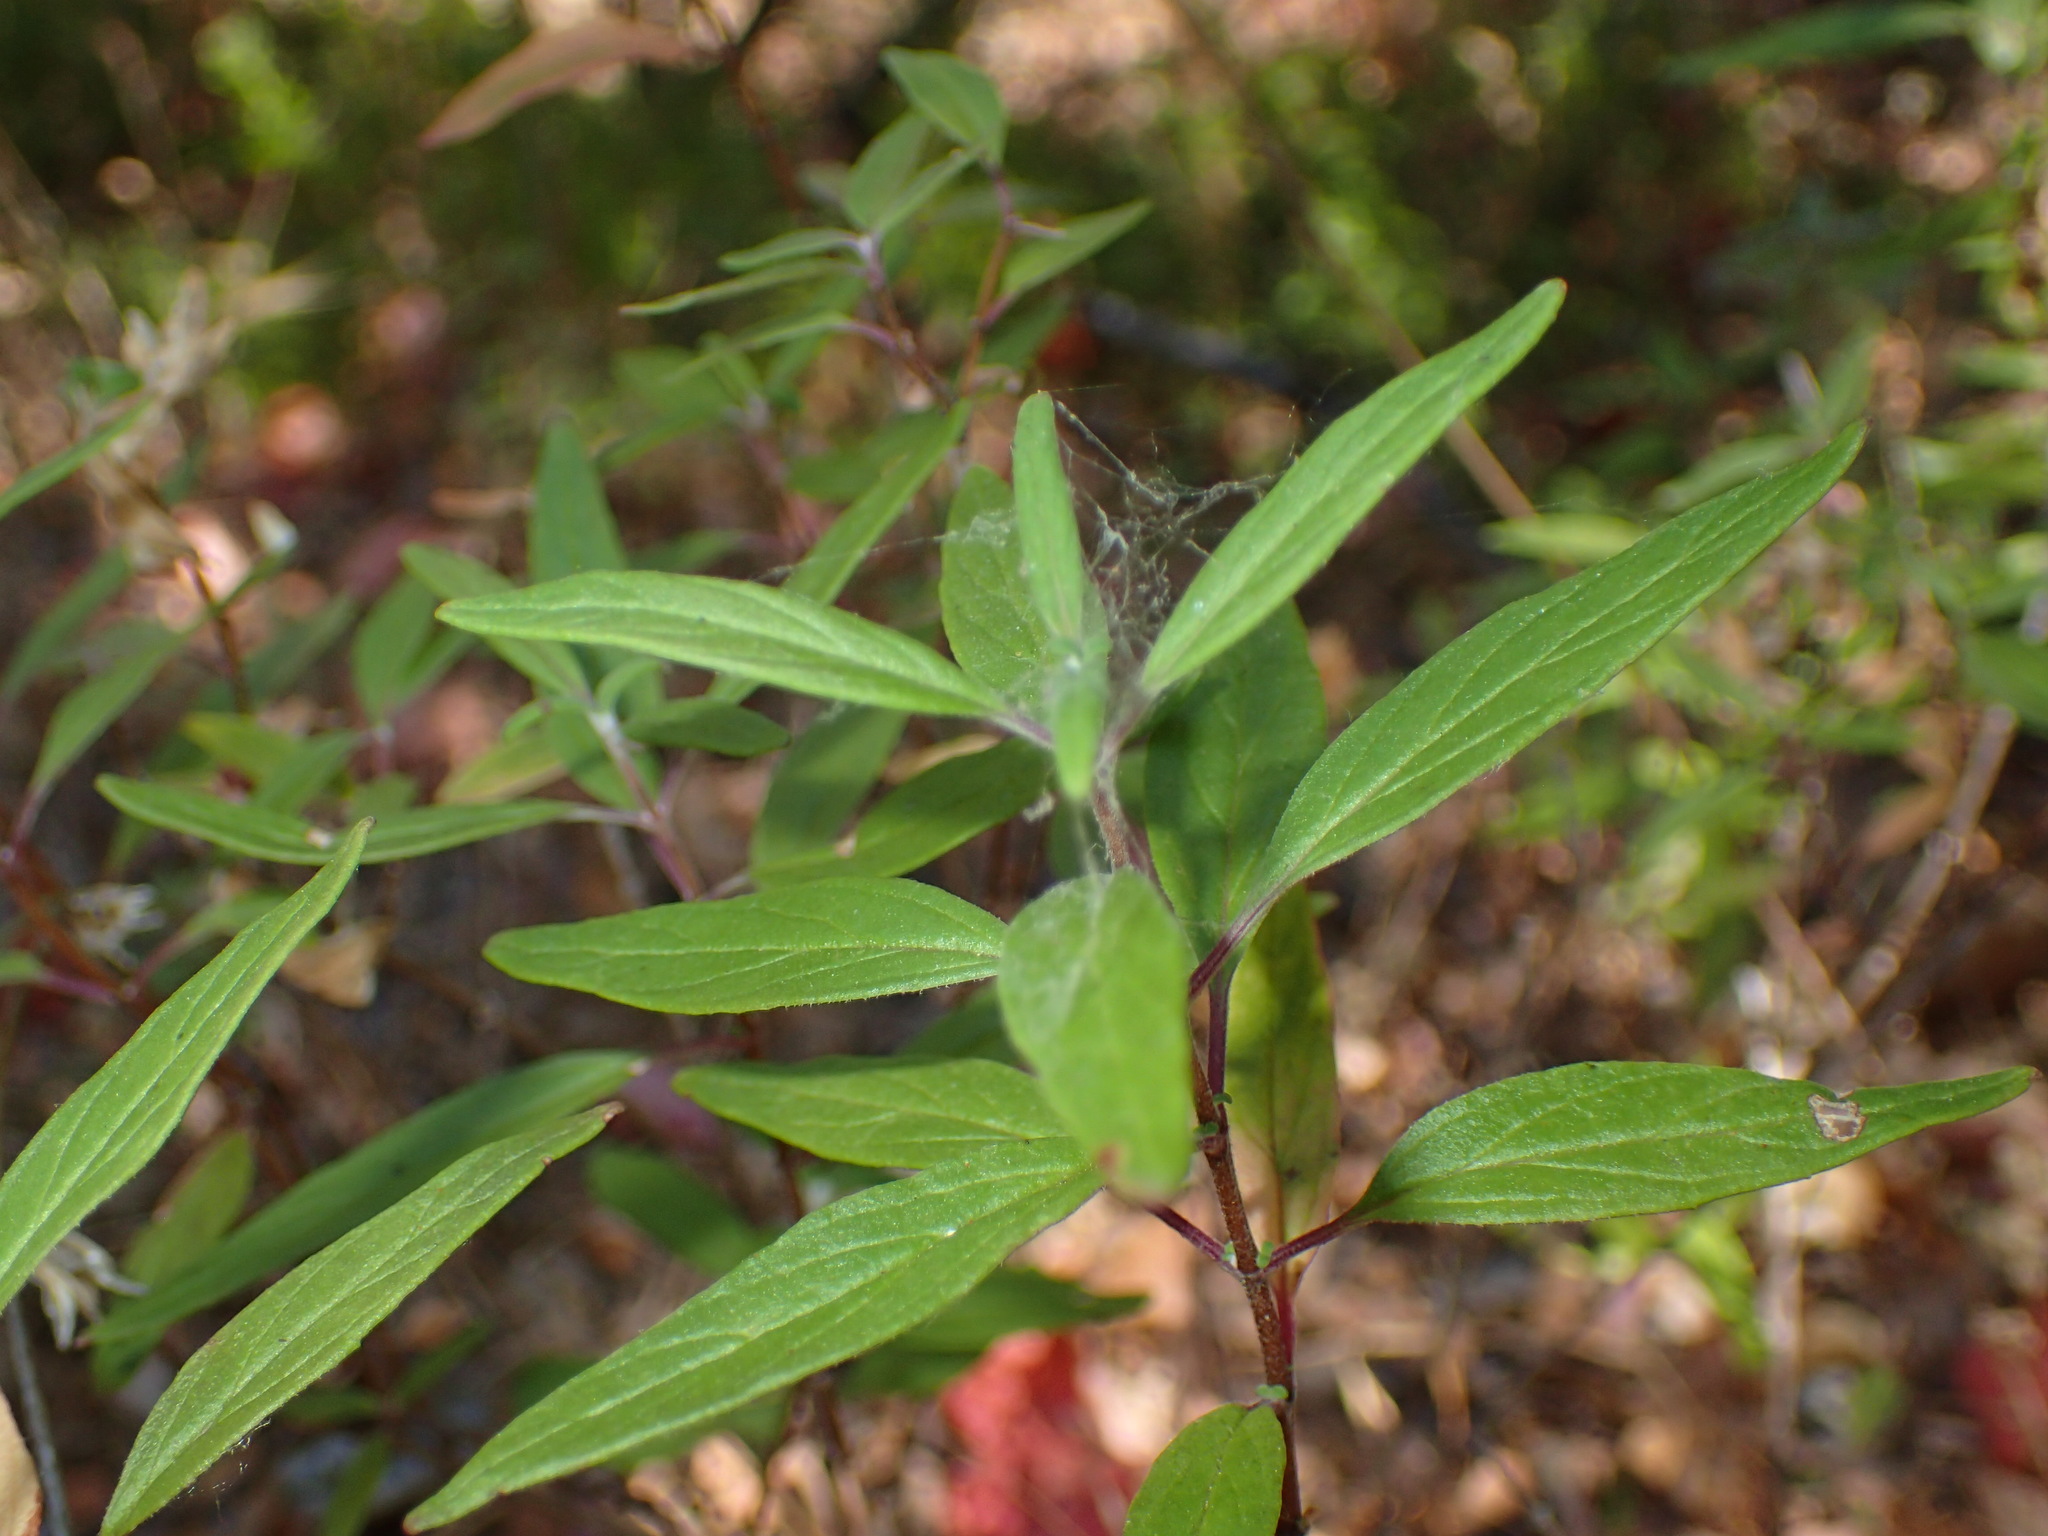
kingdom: Plantae
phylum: Tracheophyta
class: Magnoliopsida
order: Lamiales
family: Lamiaceae
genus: Monardella
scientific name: Monardella hypoleuca
